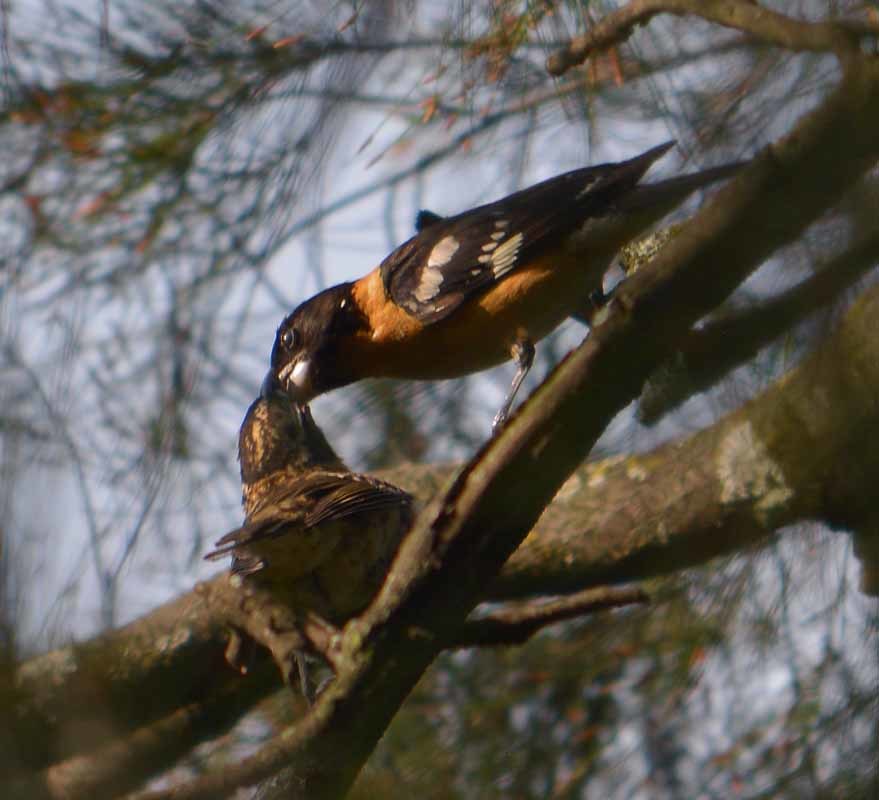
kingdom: Animalia
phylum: Chordata
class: Aves
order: Passeriformes
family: Cardinalidae
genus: Pheucticus
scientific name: Pheucticus melanocephalus
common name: Black-headed grosbeak
